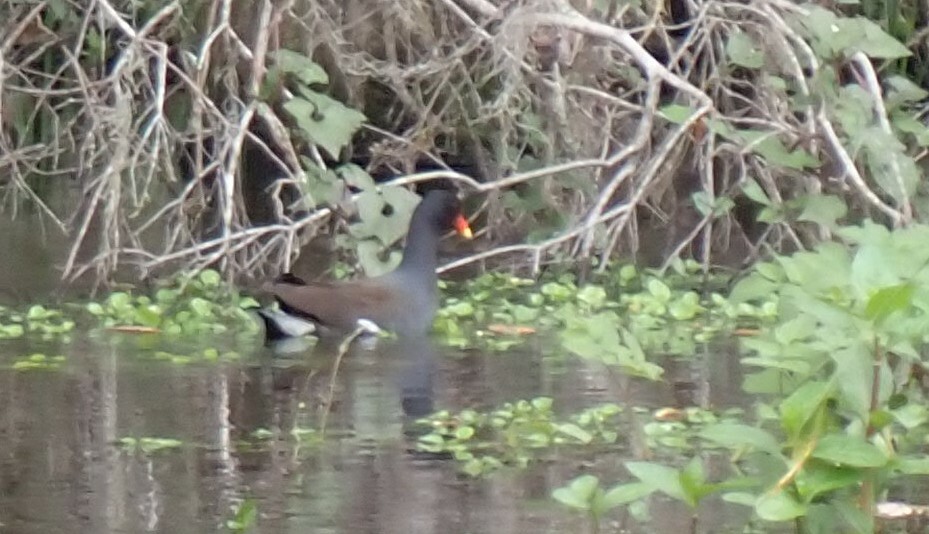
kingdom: Animalia
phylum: Chordata
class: Aves
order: Gruiformes
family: Rallidae
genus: Gallinula
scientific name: Gallinula chloropus
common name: Common moorhen
